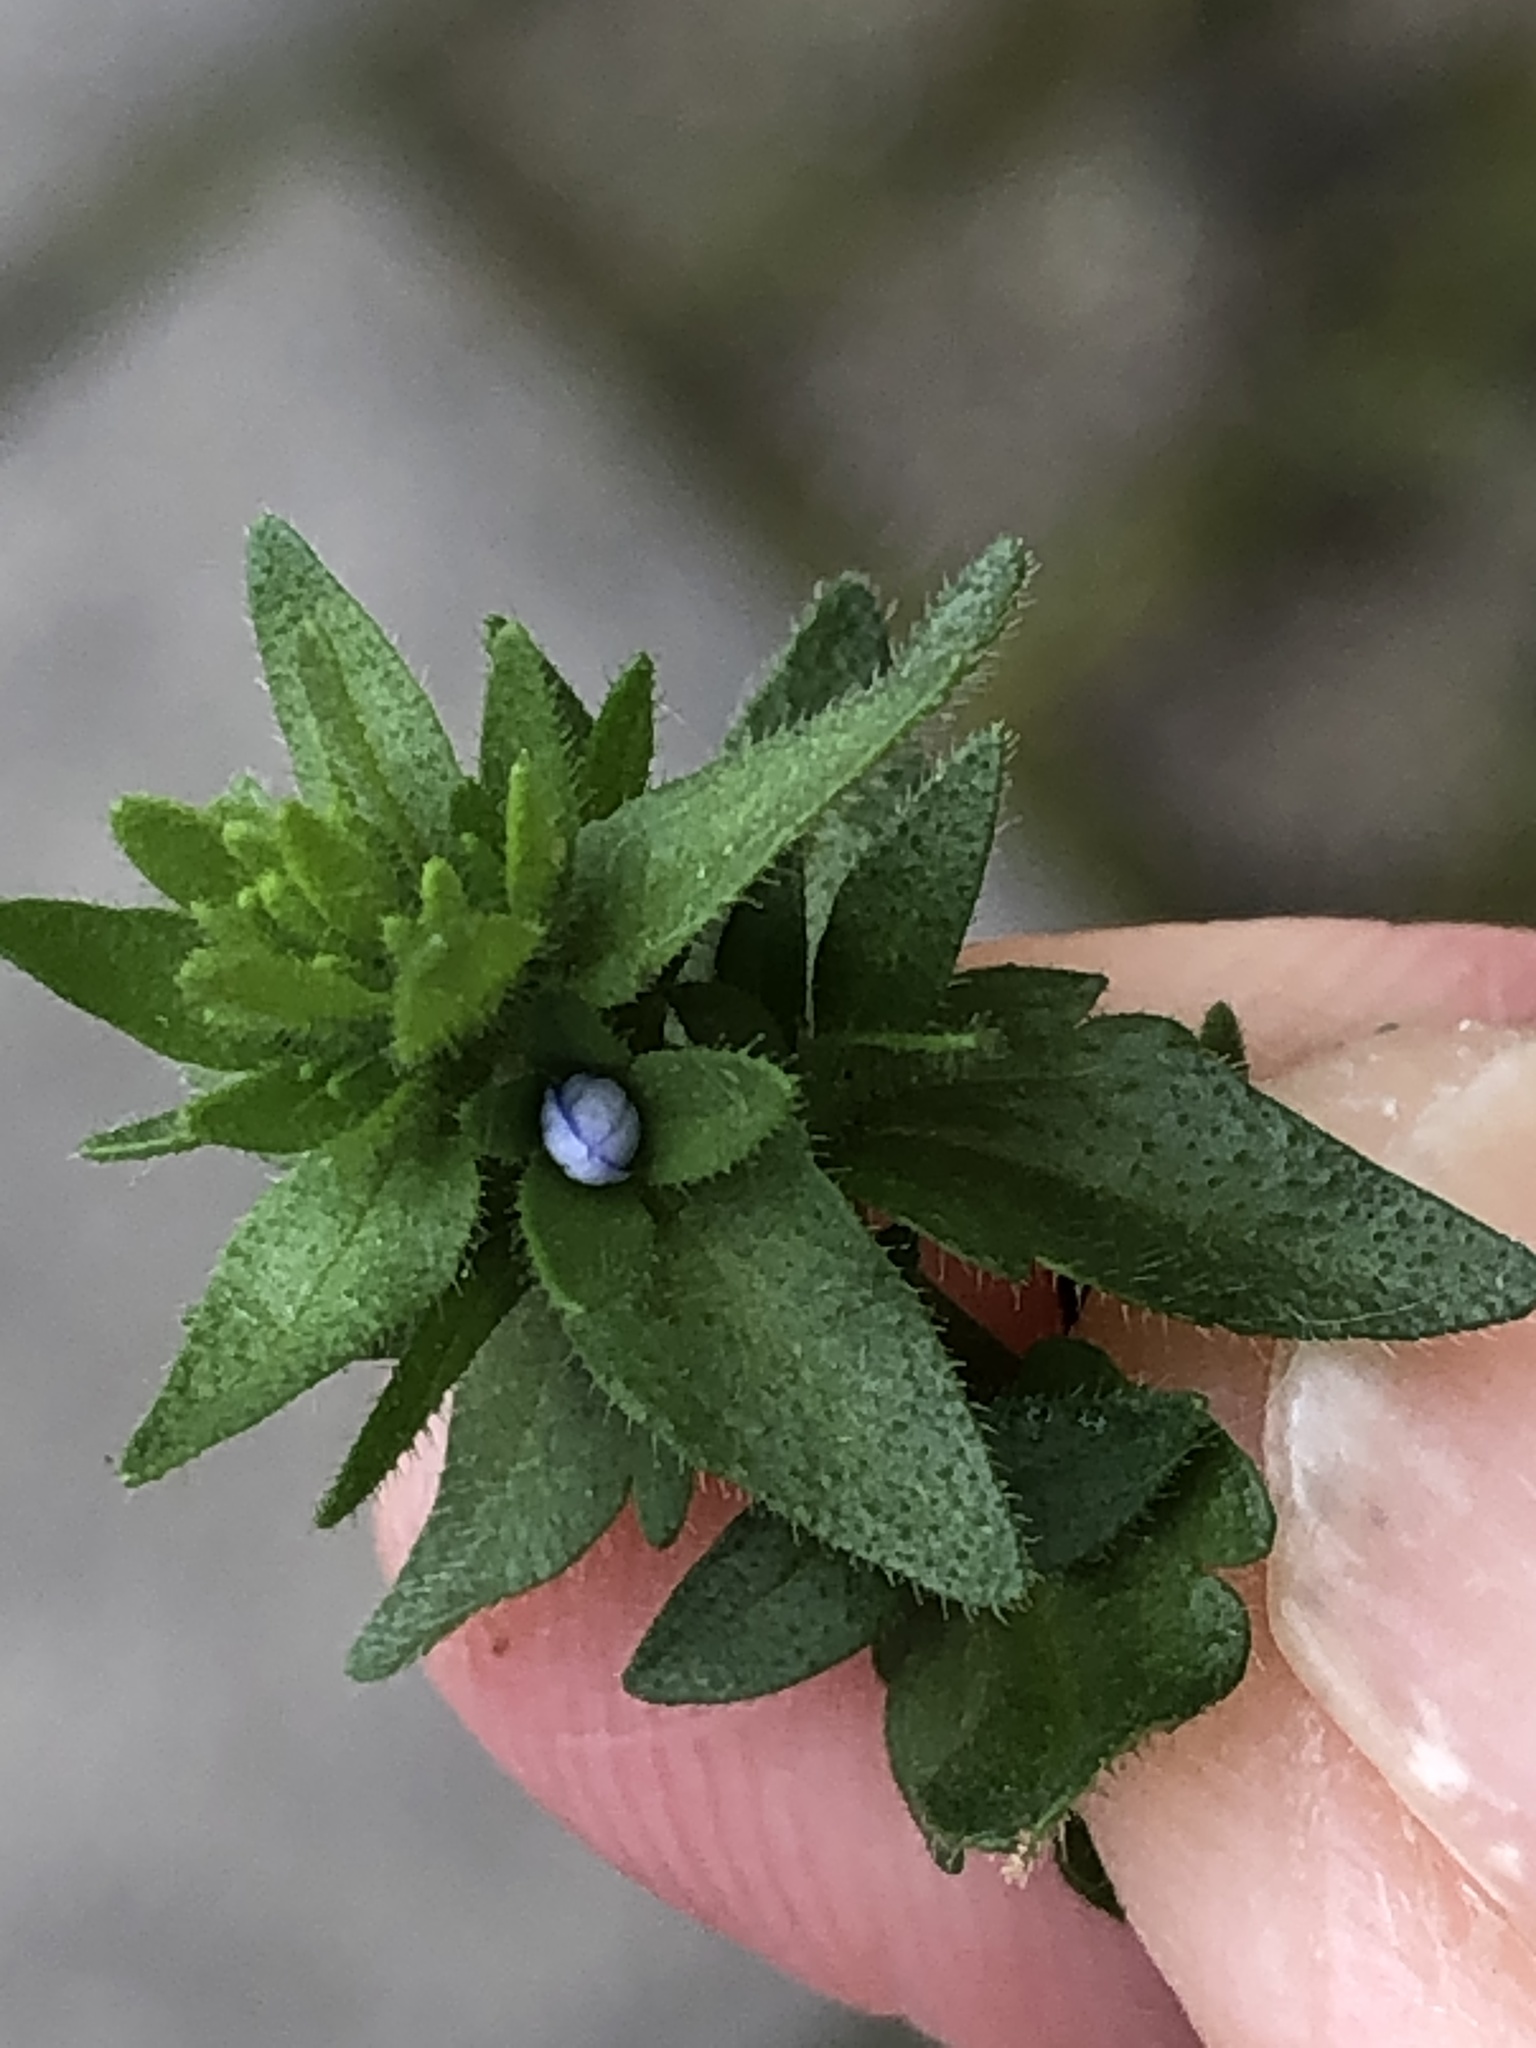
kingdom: Plantae
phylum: Tracheophyta
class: Magnoliopsida
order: Lamiales
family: Plantaginaceae
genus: Veronica
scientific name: Veronica arvensis
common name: Corn speedwell
